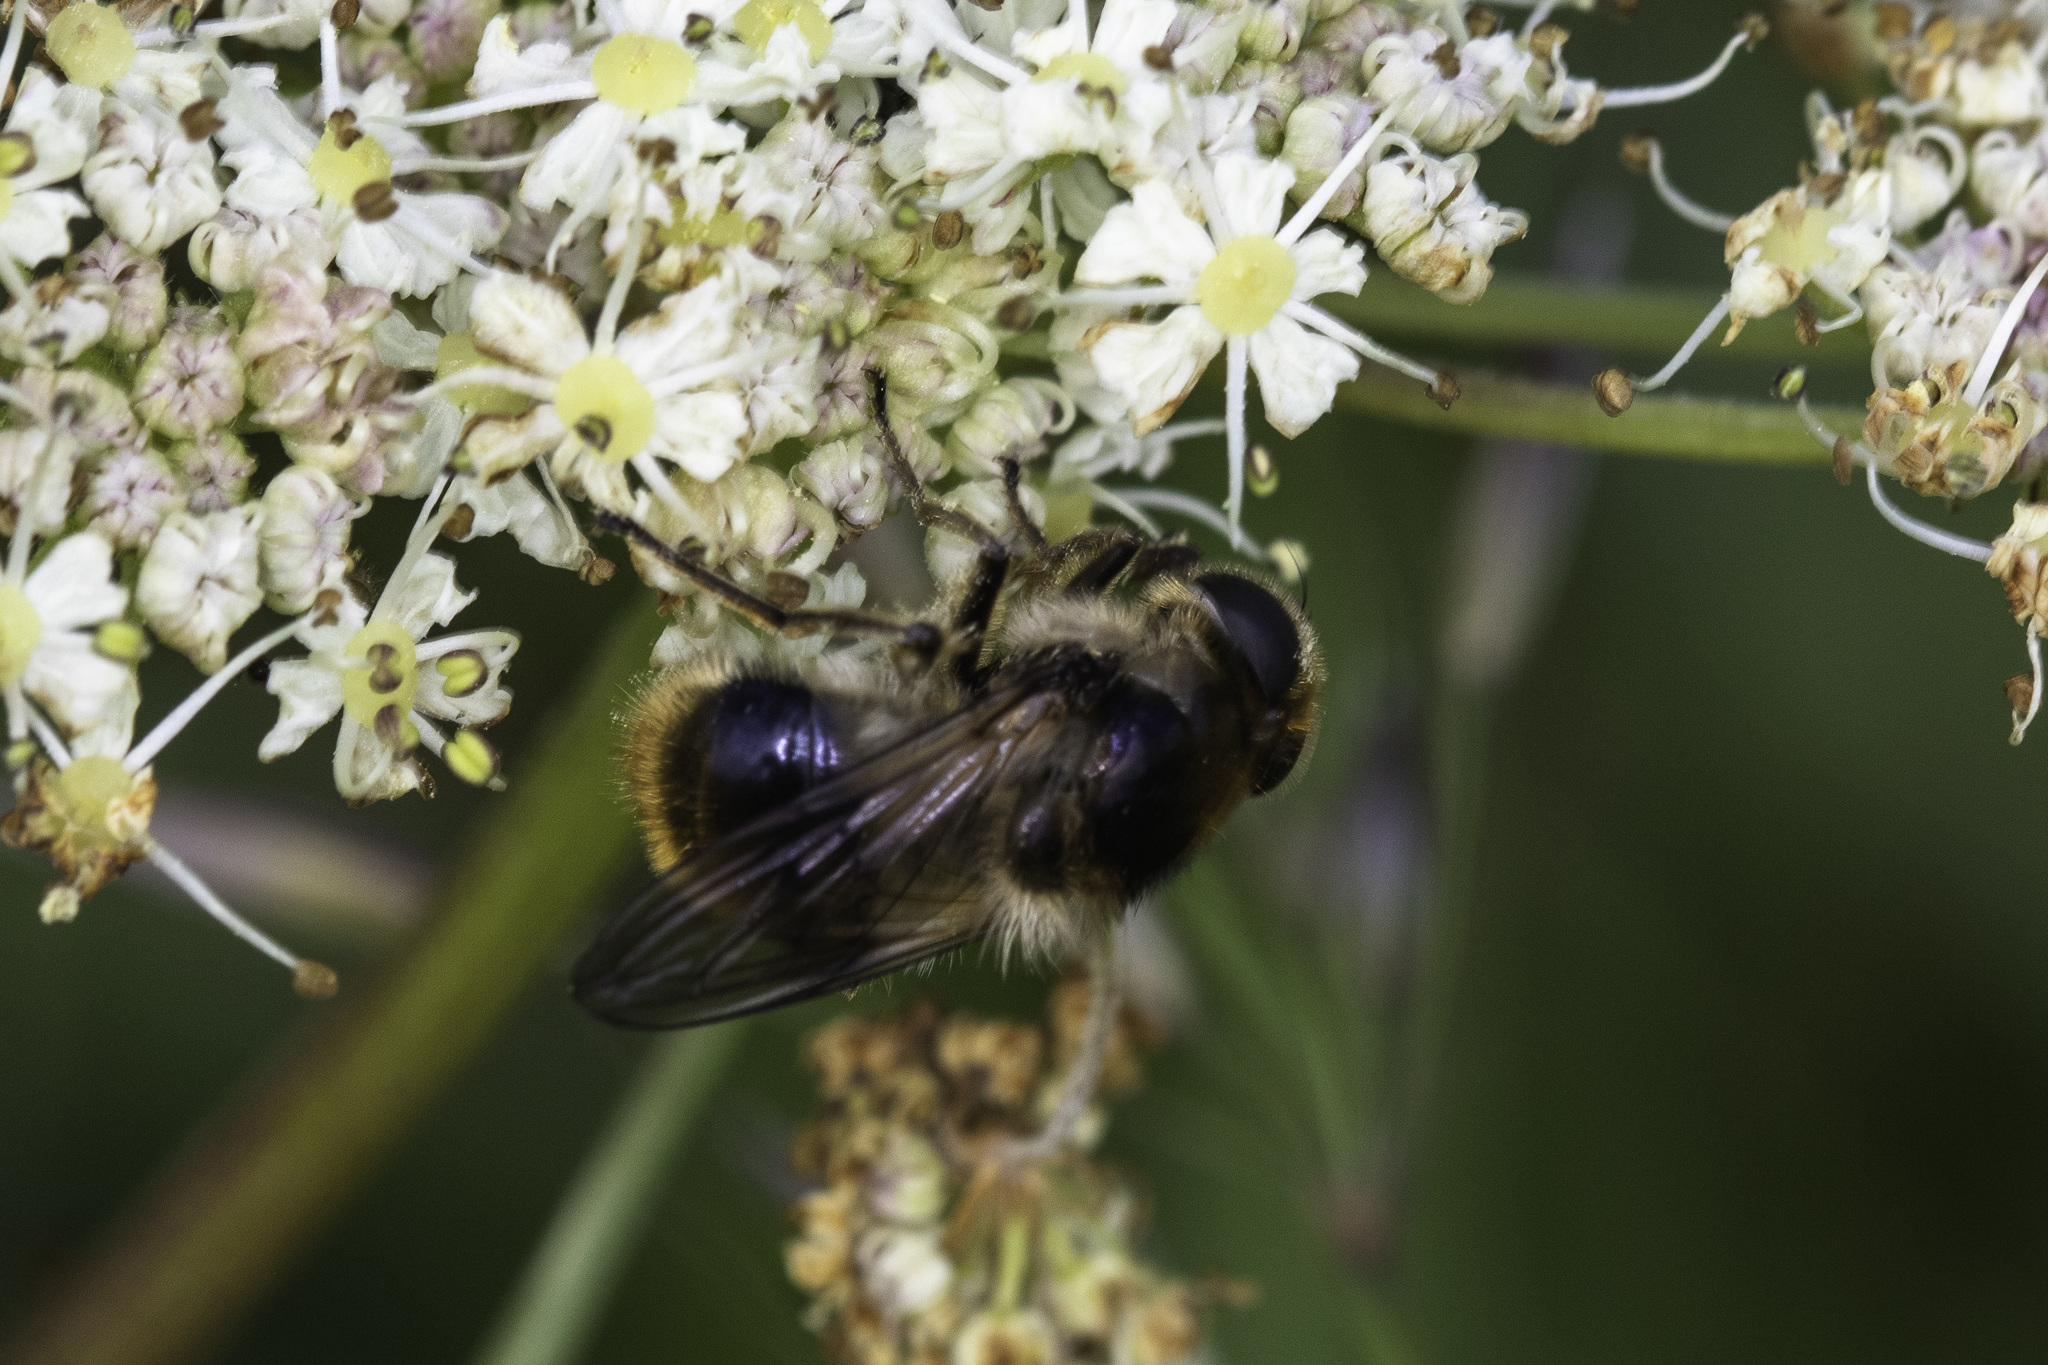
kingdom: Animalia
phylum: Arthropoda
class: Insecta
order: Diptera
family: Syrphidae
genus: Cheilosia
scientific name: Cheilosia illustrata
